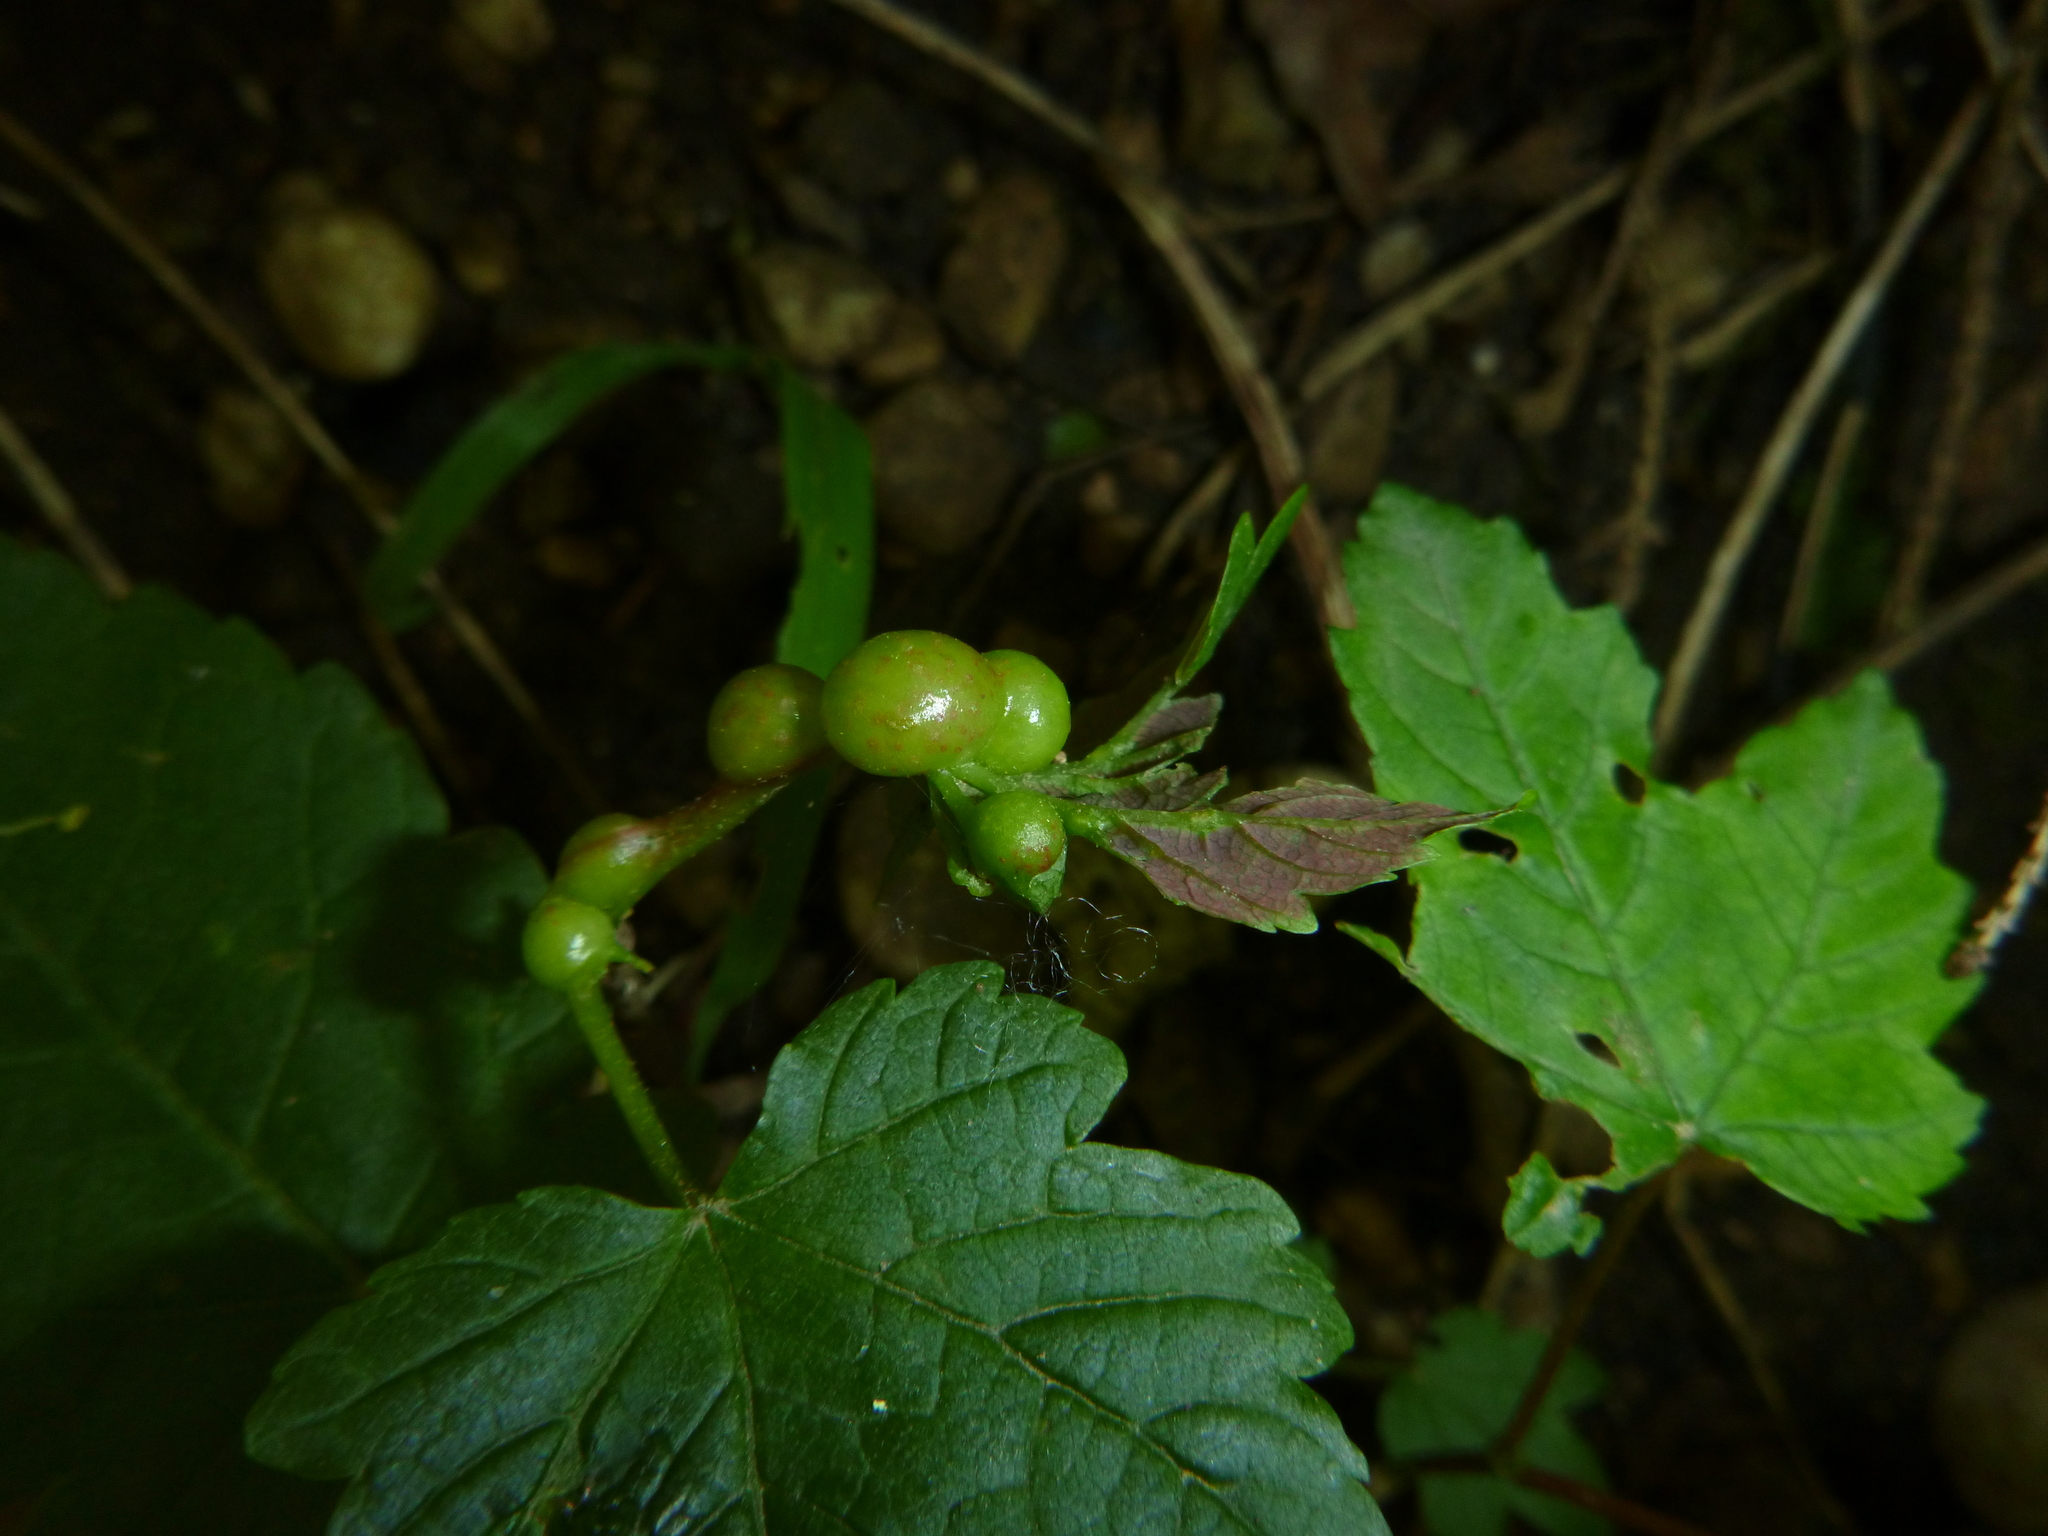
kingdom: Animalia
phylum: Arthropoda
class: Insecta
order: Hymenoptera
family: Cynipidae
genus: Pediaspis
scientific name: Pediaspis aceris
